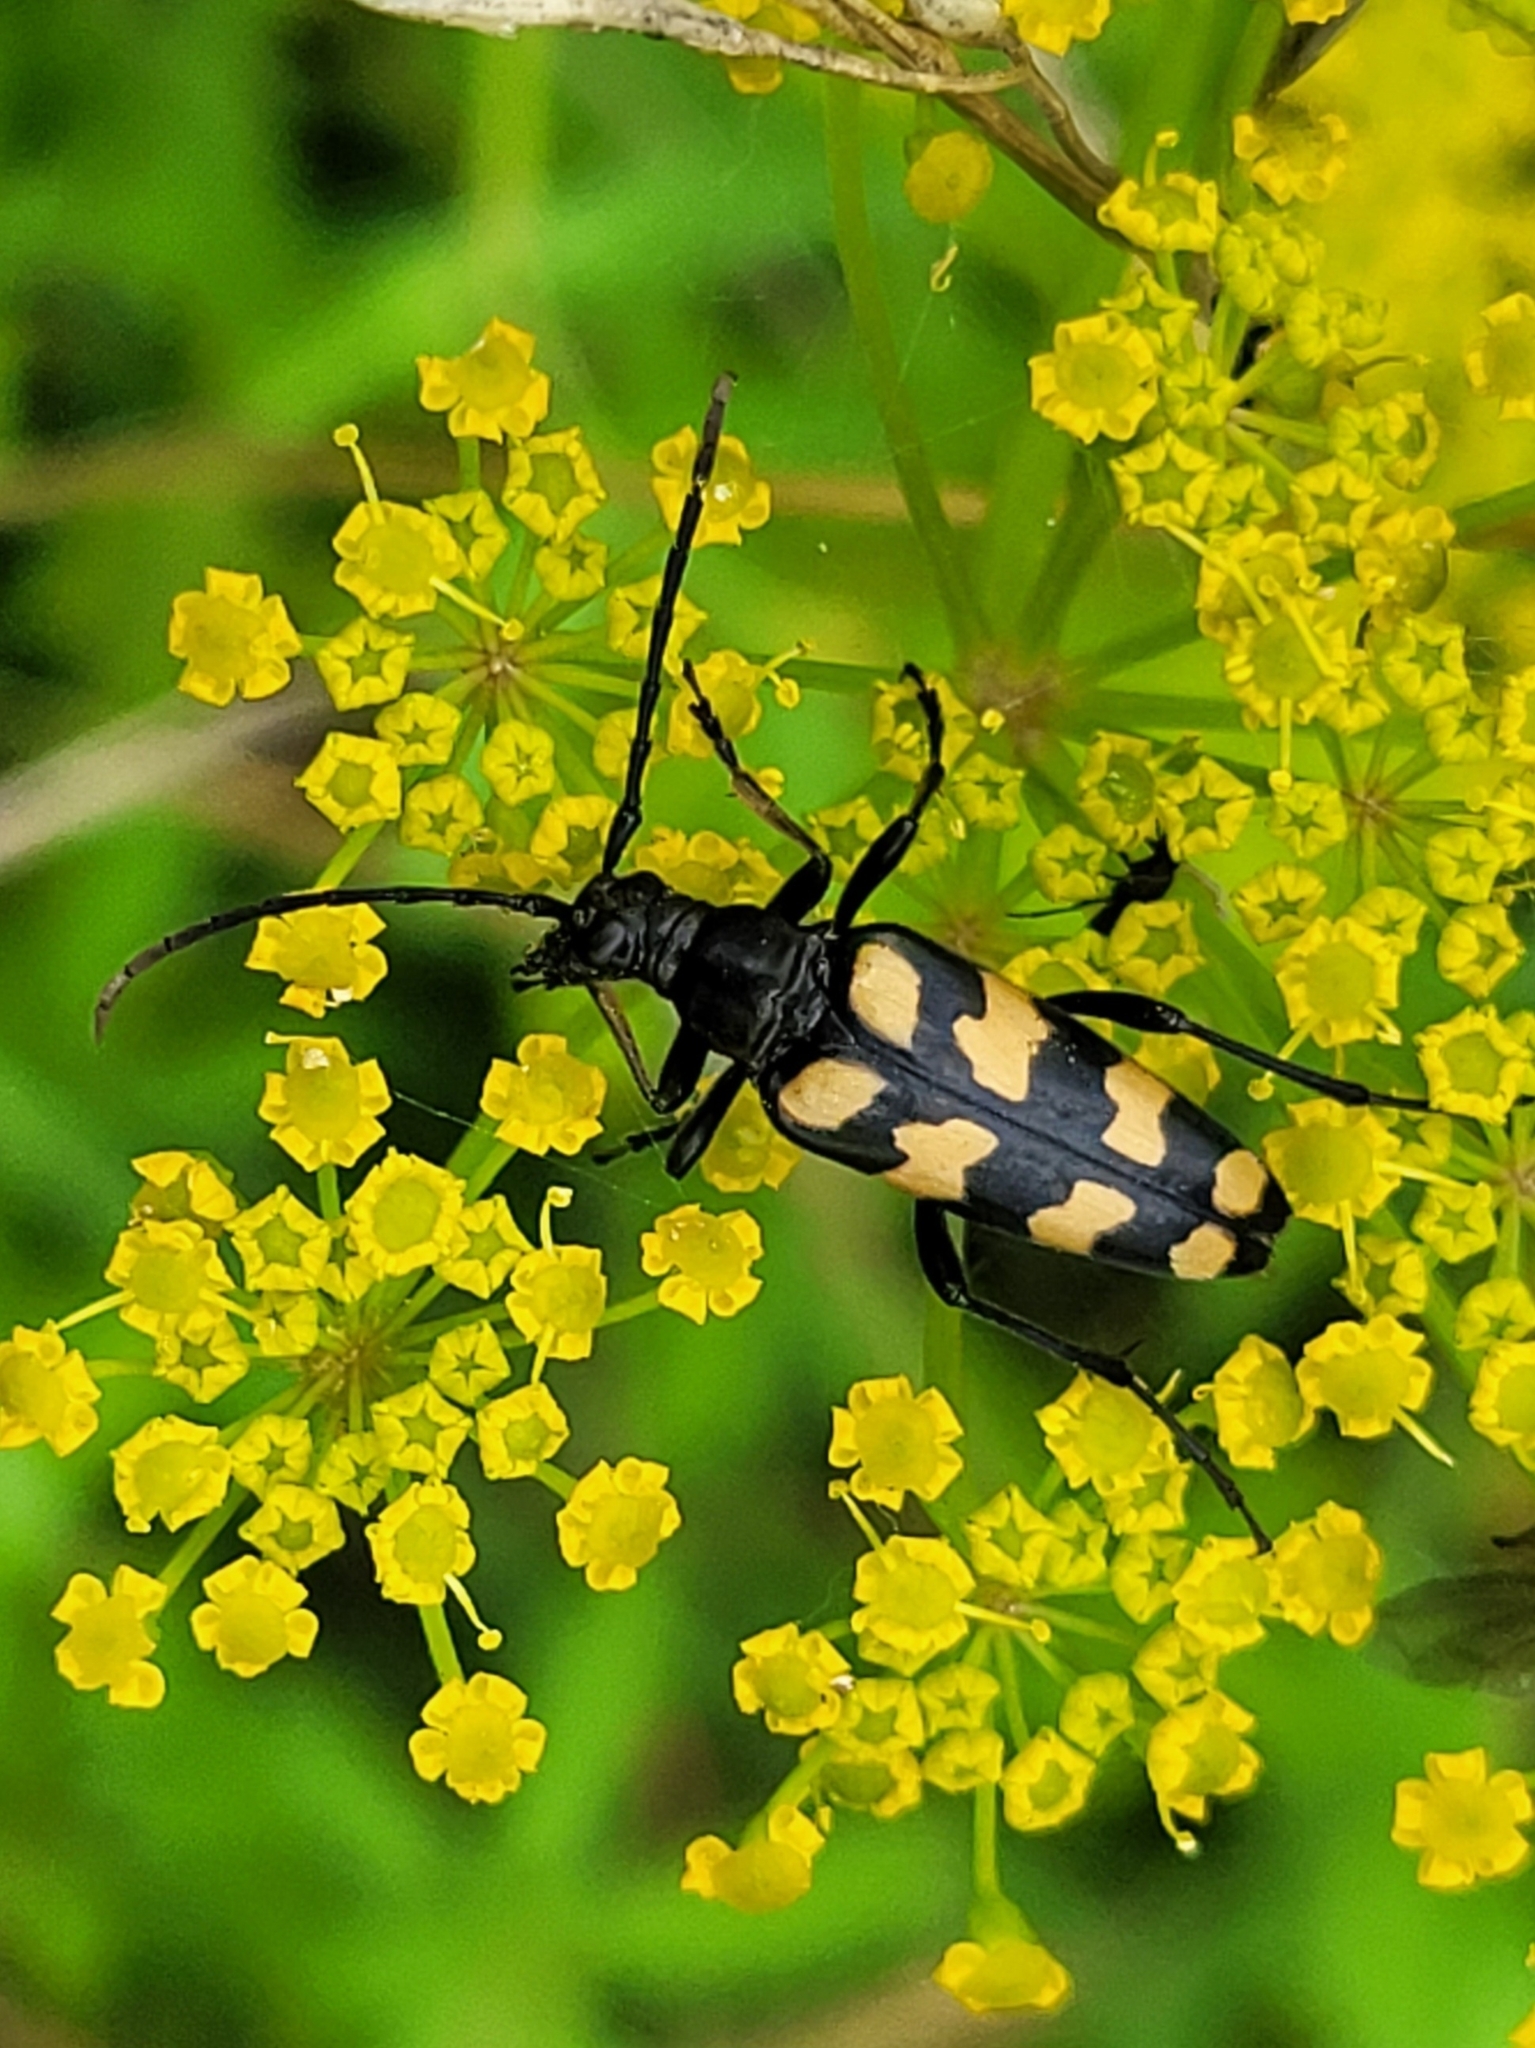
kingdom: Animalia
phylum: Arthropoda
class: Insecta
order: Coleoptera
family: Cerambycidae
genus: Leptura
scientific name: Leptura quadrifasciata
